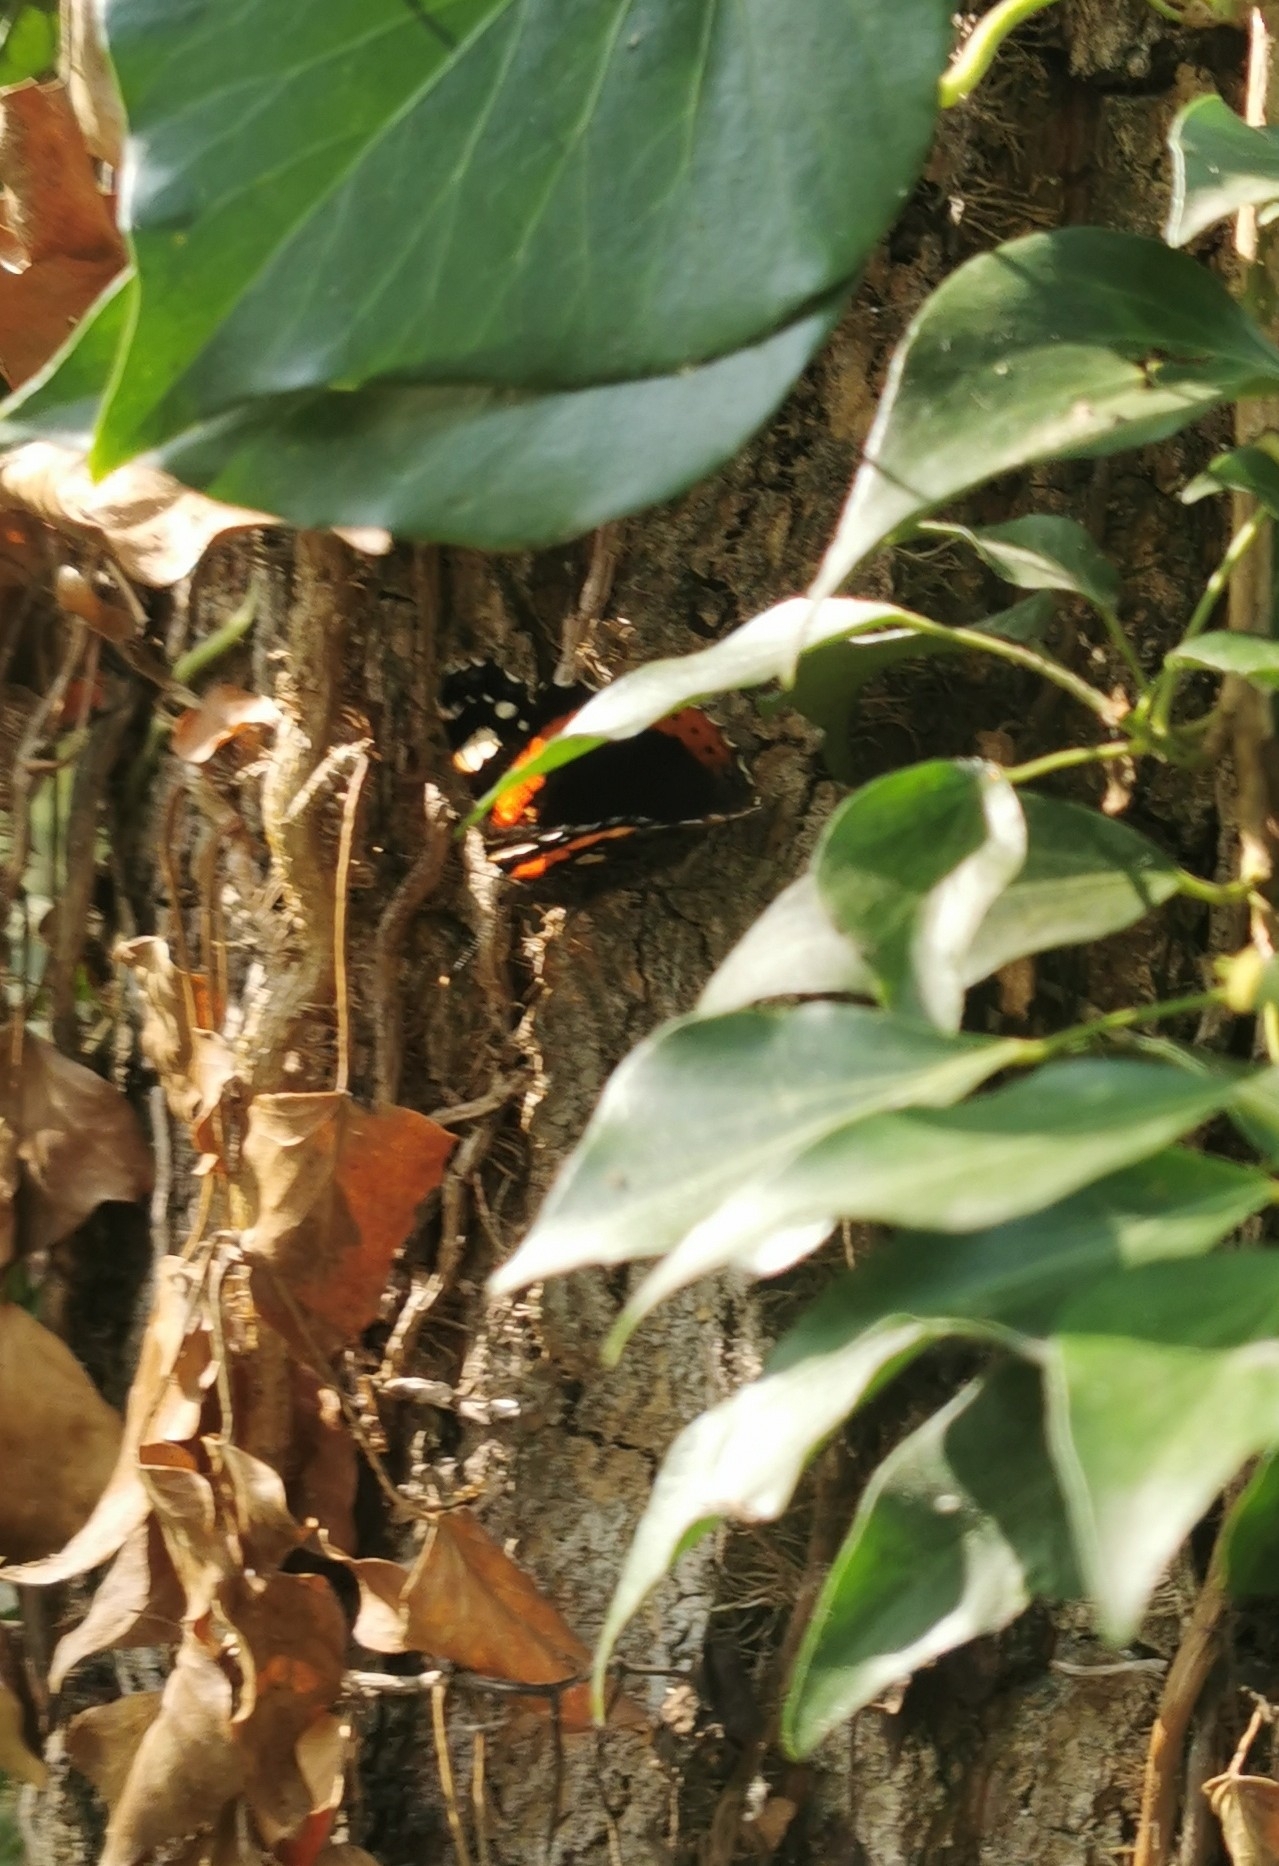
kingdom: Animalia
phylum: Arthropoda
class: Insecta
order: Lepidoptera
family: Nymphalidae
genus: Vanessa
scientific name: Vanessa atalanta
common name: Red admiral
